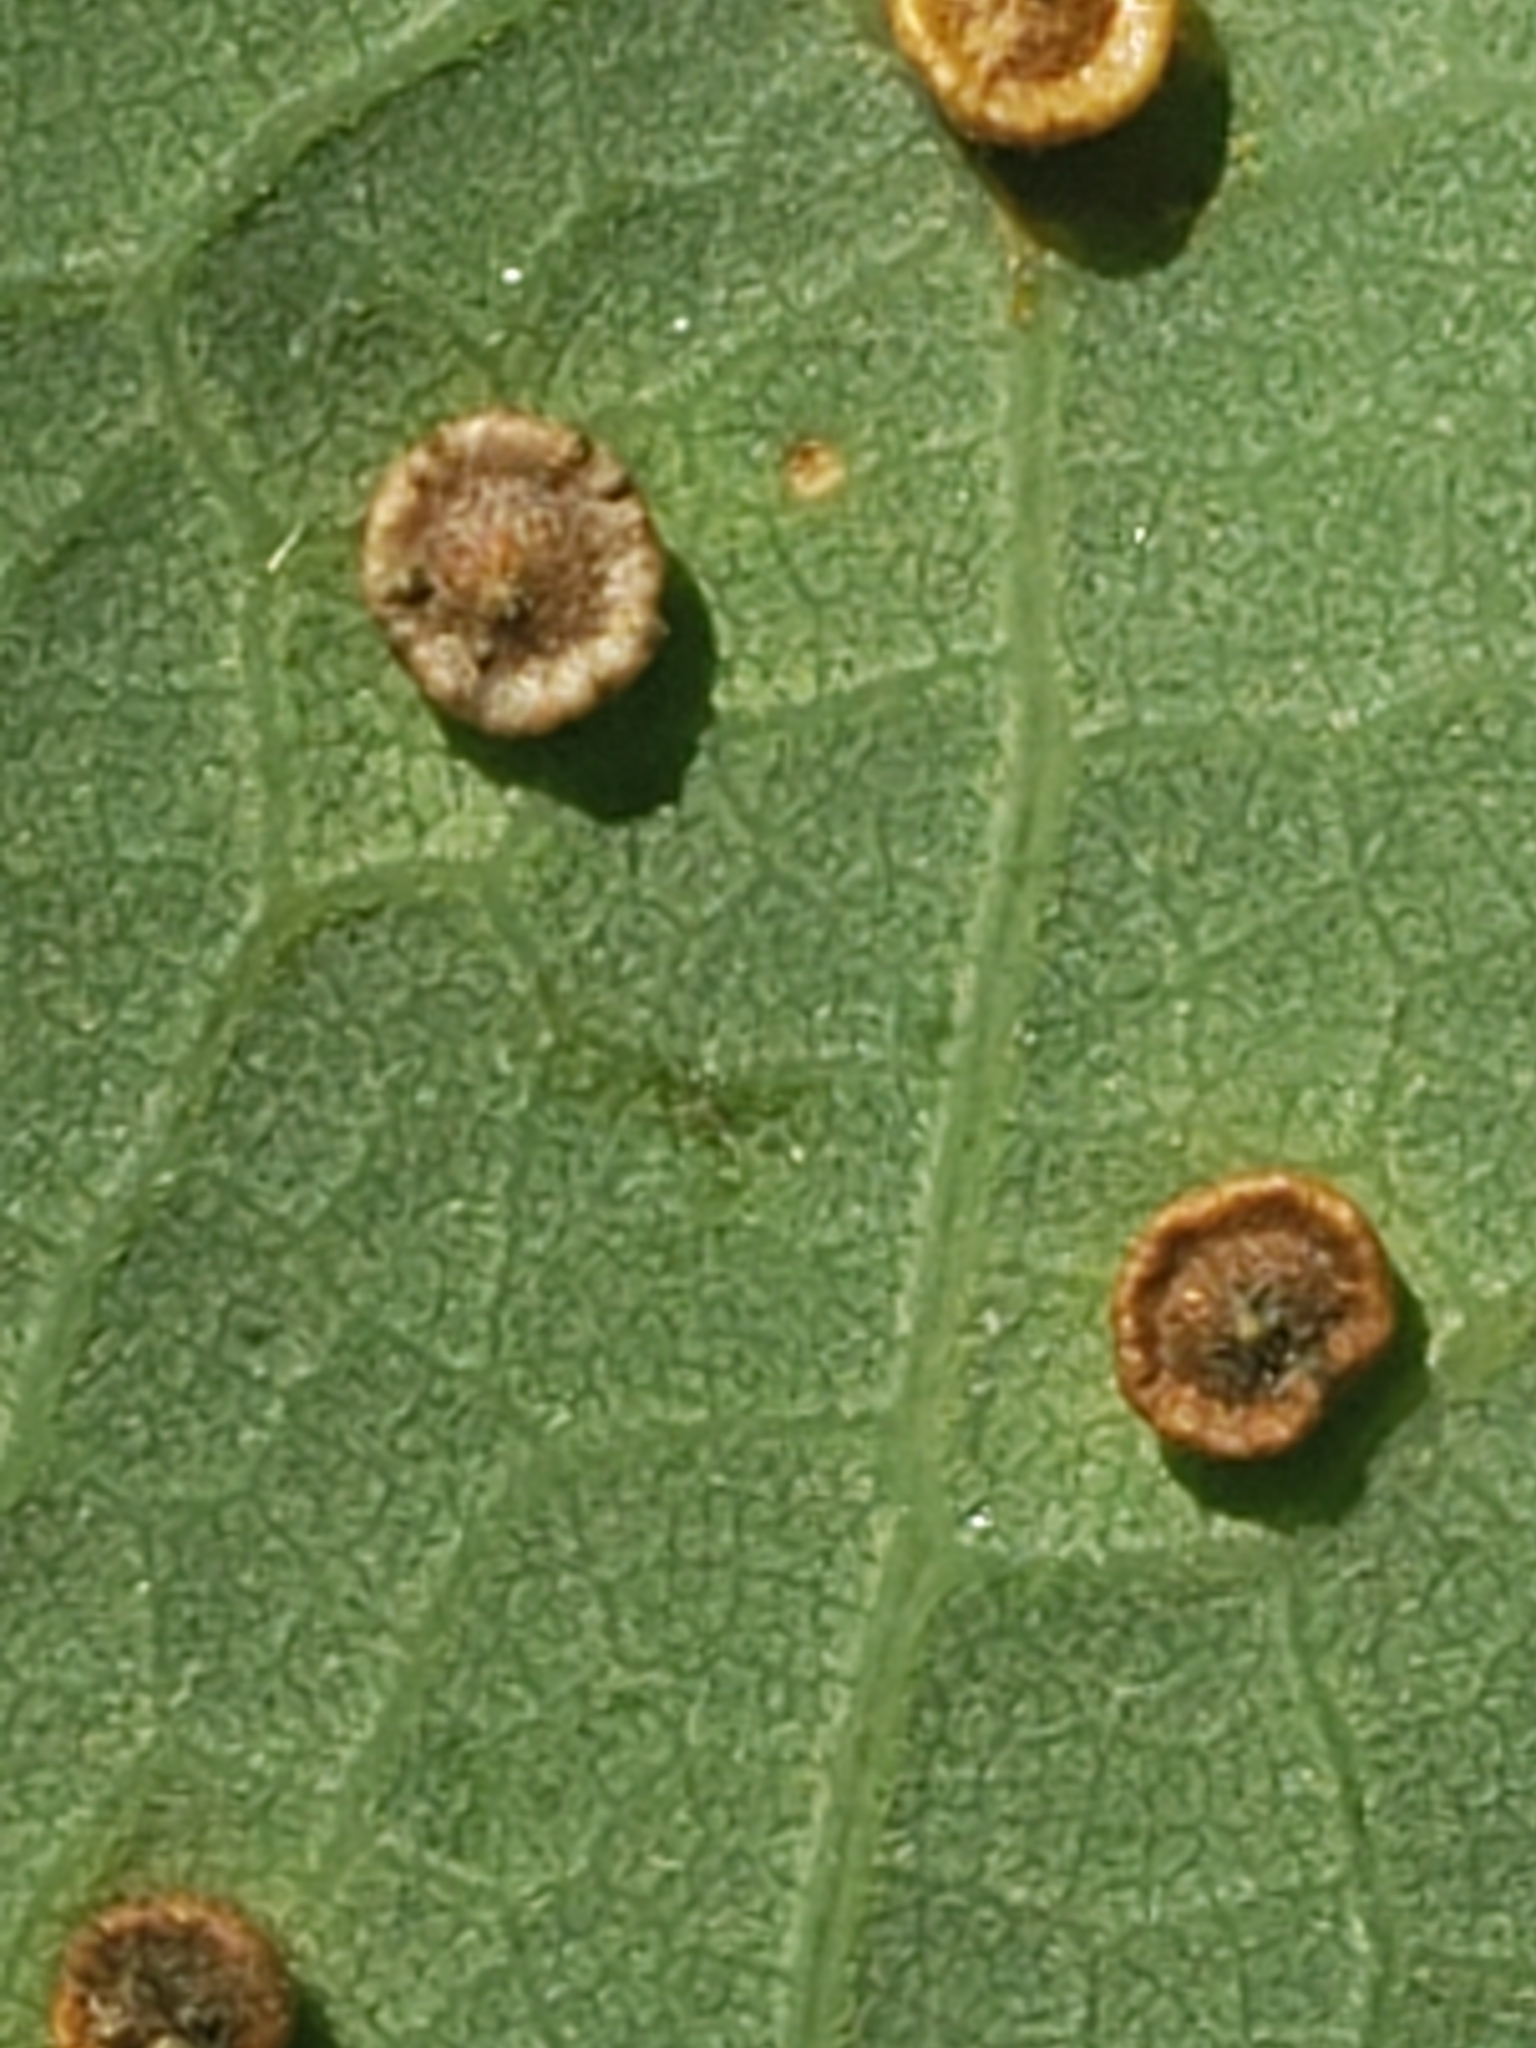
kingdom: Animalia
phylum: Arthropoda
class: Insecta
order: Hymenoptera
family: Cynipidae
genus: Neuroterus
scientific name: Neuroterus
